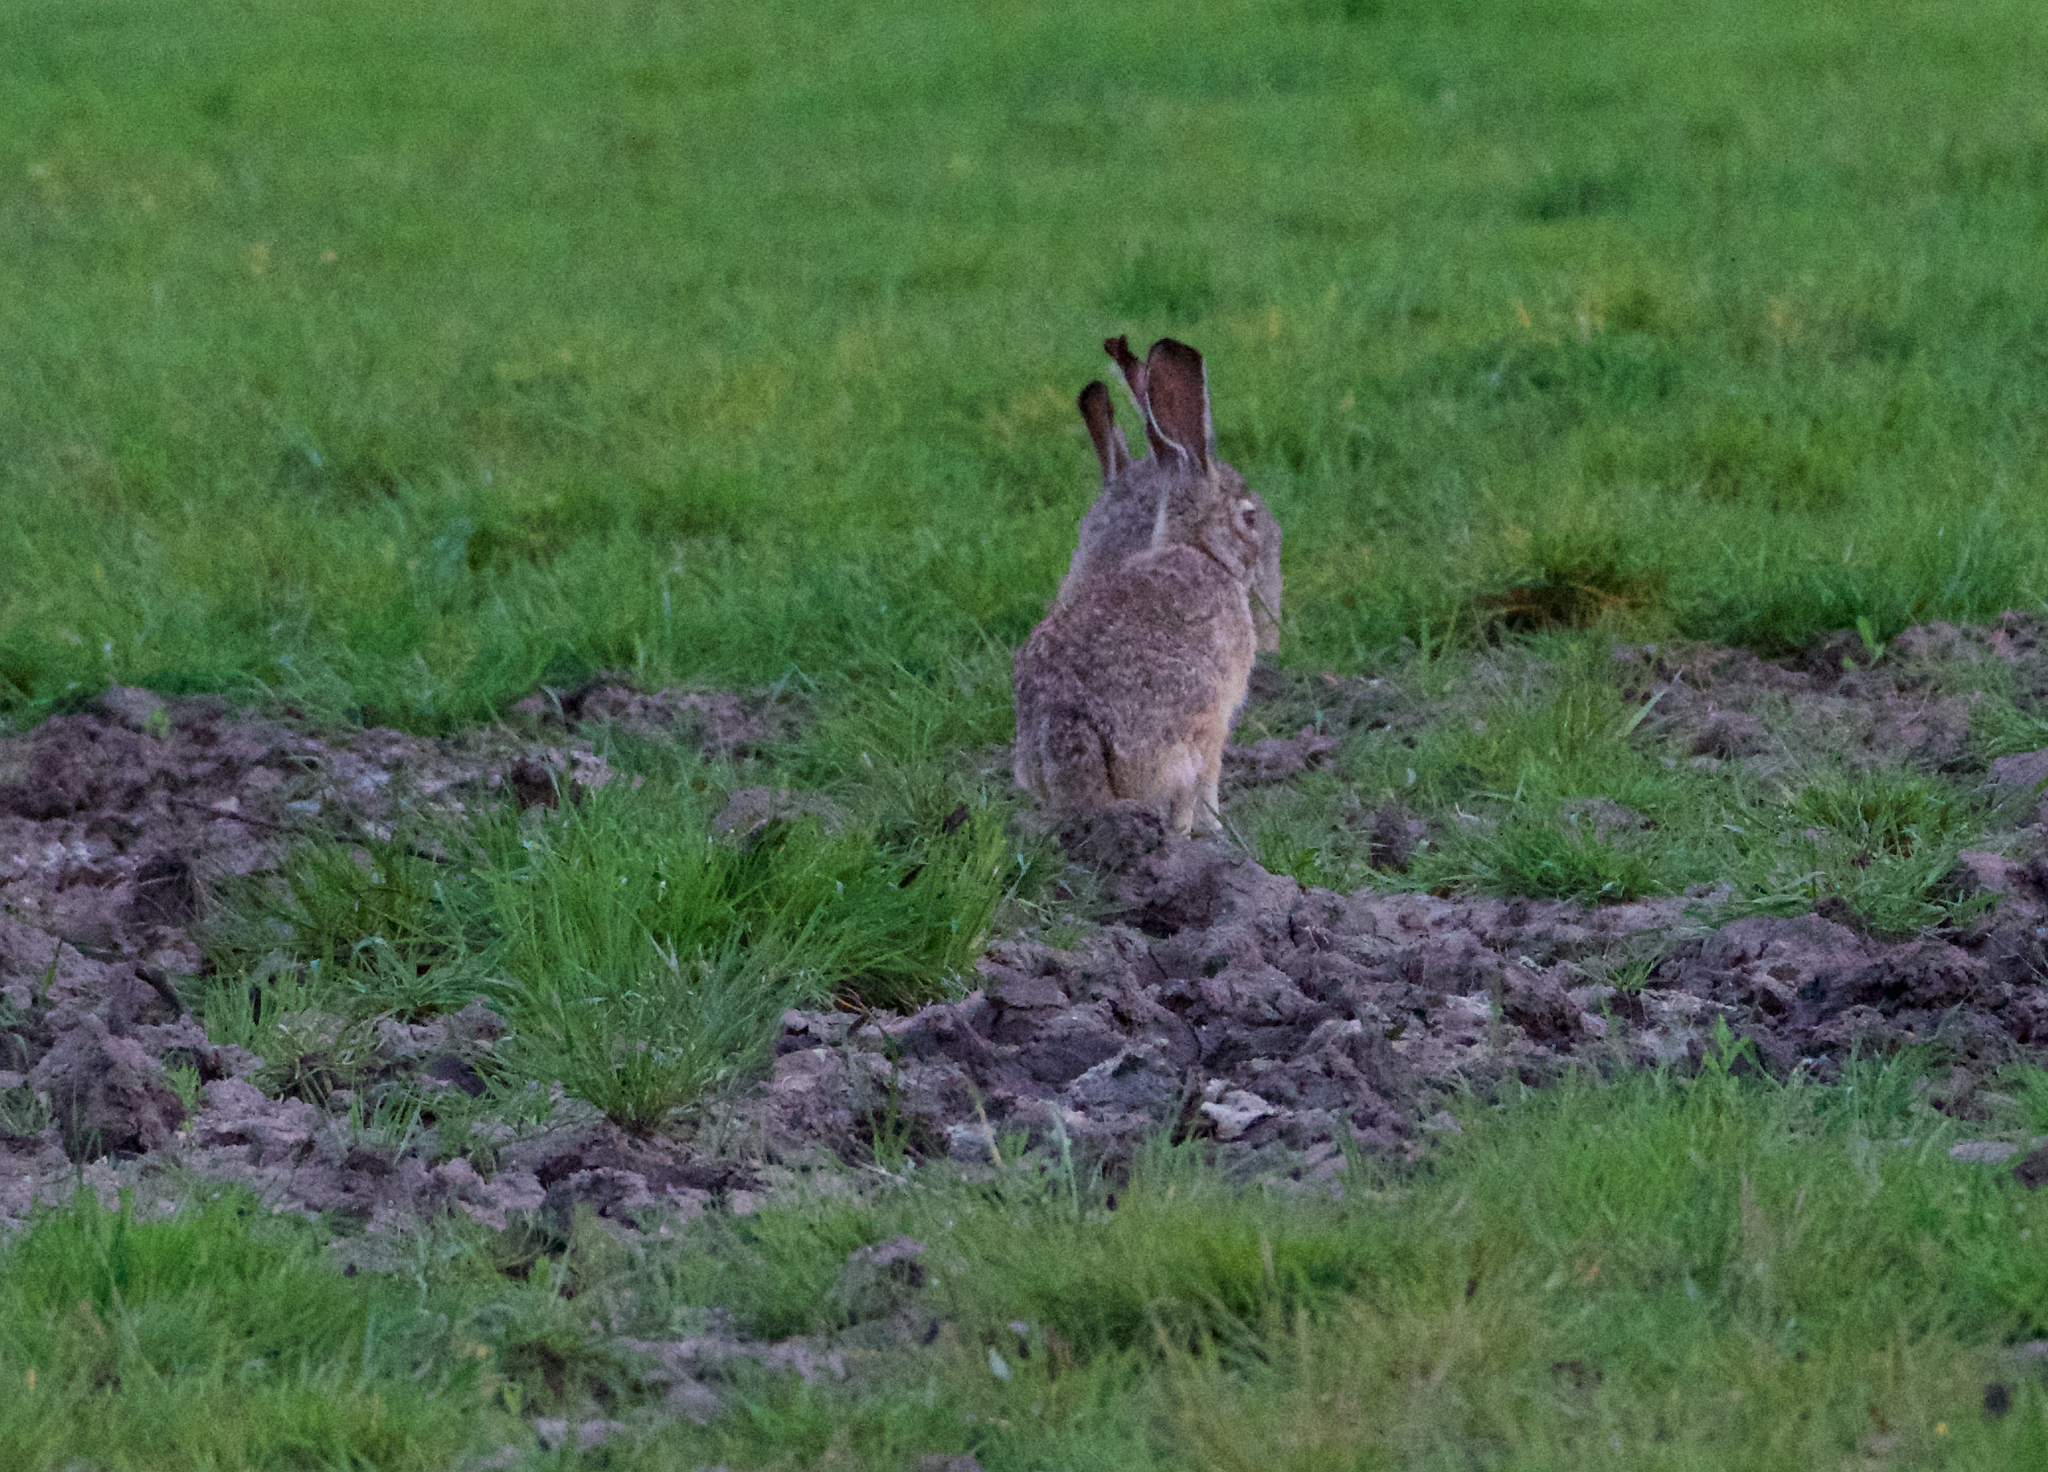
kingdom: Animalia
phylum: Chordata
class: Mammalia
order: Lagomorpha
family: Leporidae
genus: Lepus
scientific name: Lepus californicus
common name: Black-tailed jackrabbit
